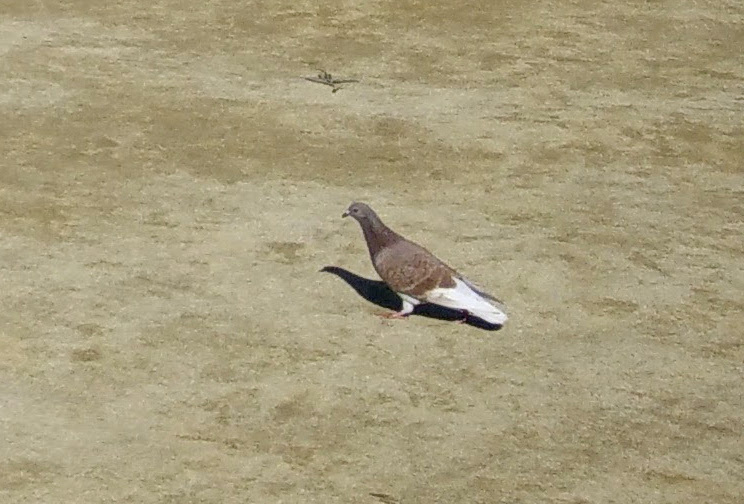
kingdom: Animalia
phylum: Chordata
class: Aves
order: Columbiformes
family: Columbidae
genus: Columba
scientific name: Columba livia
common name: Rock pigeon
